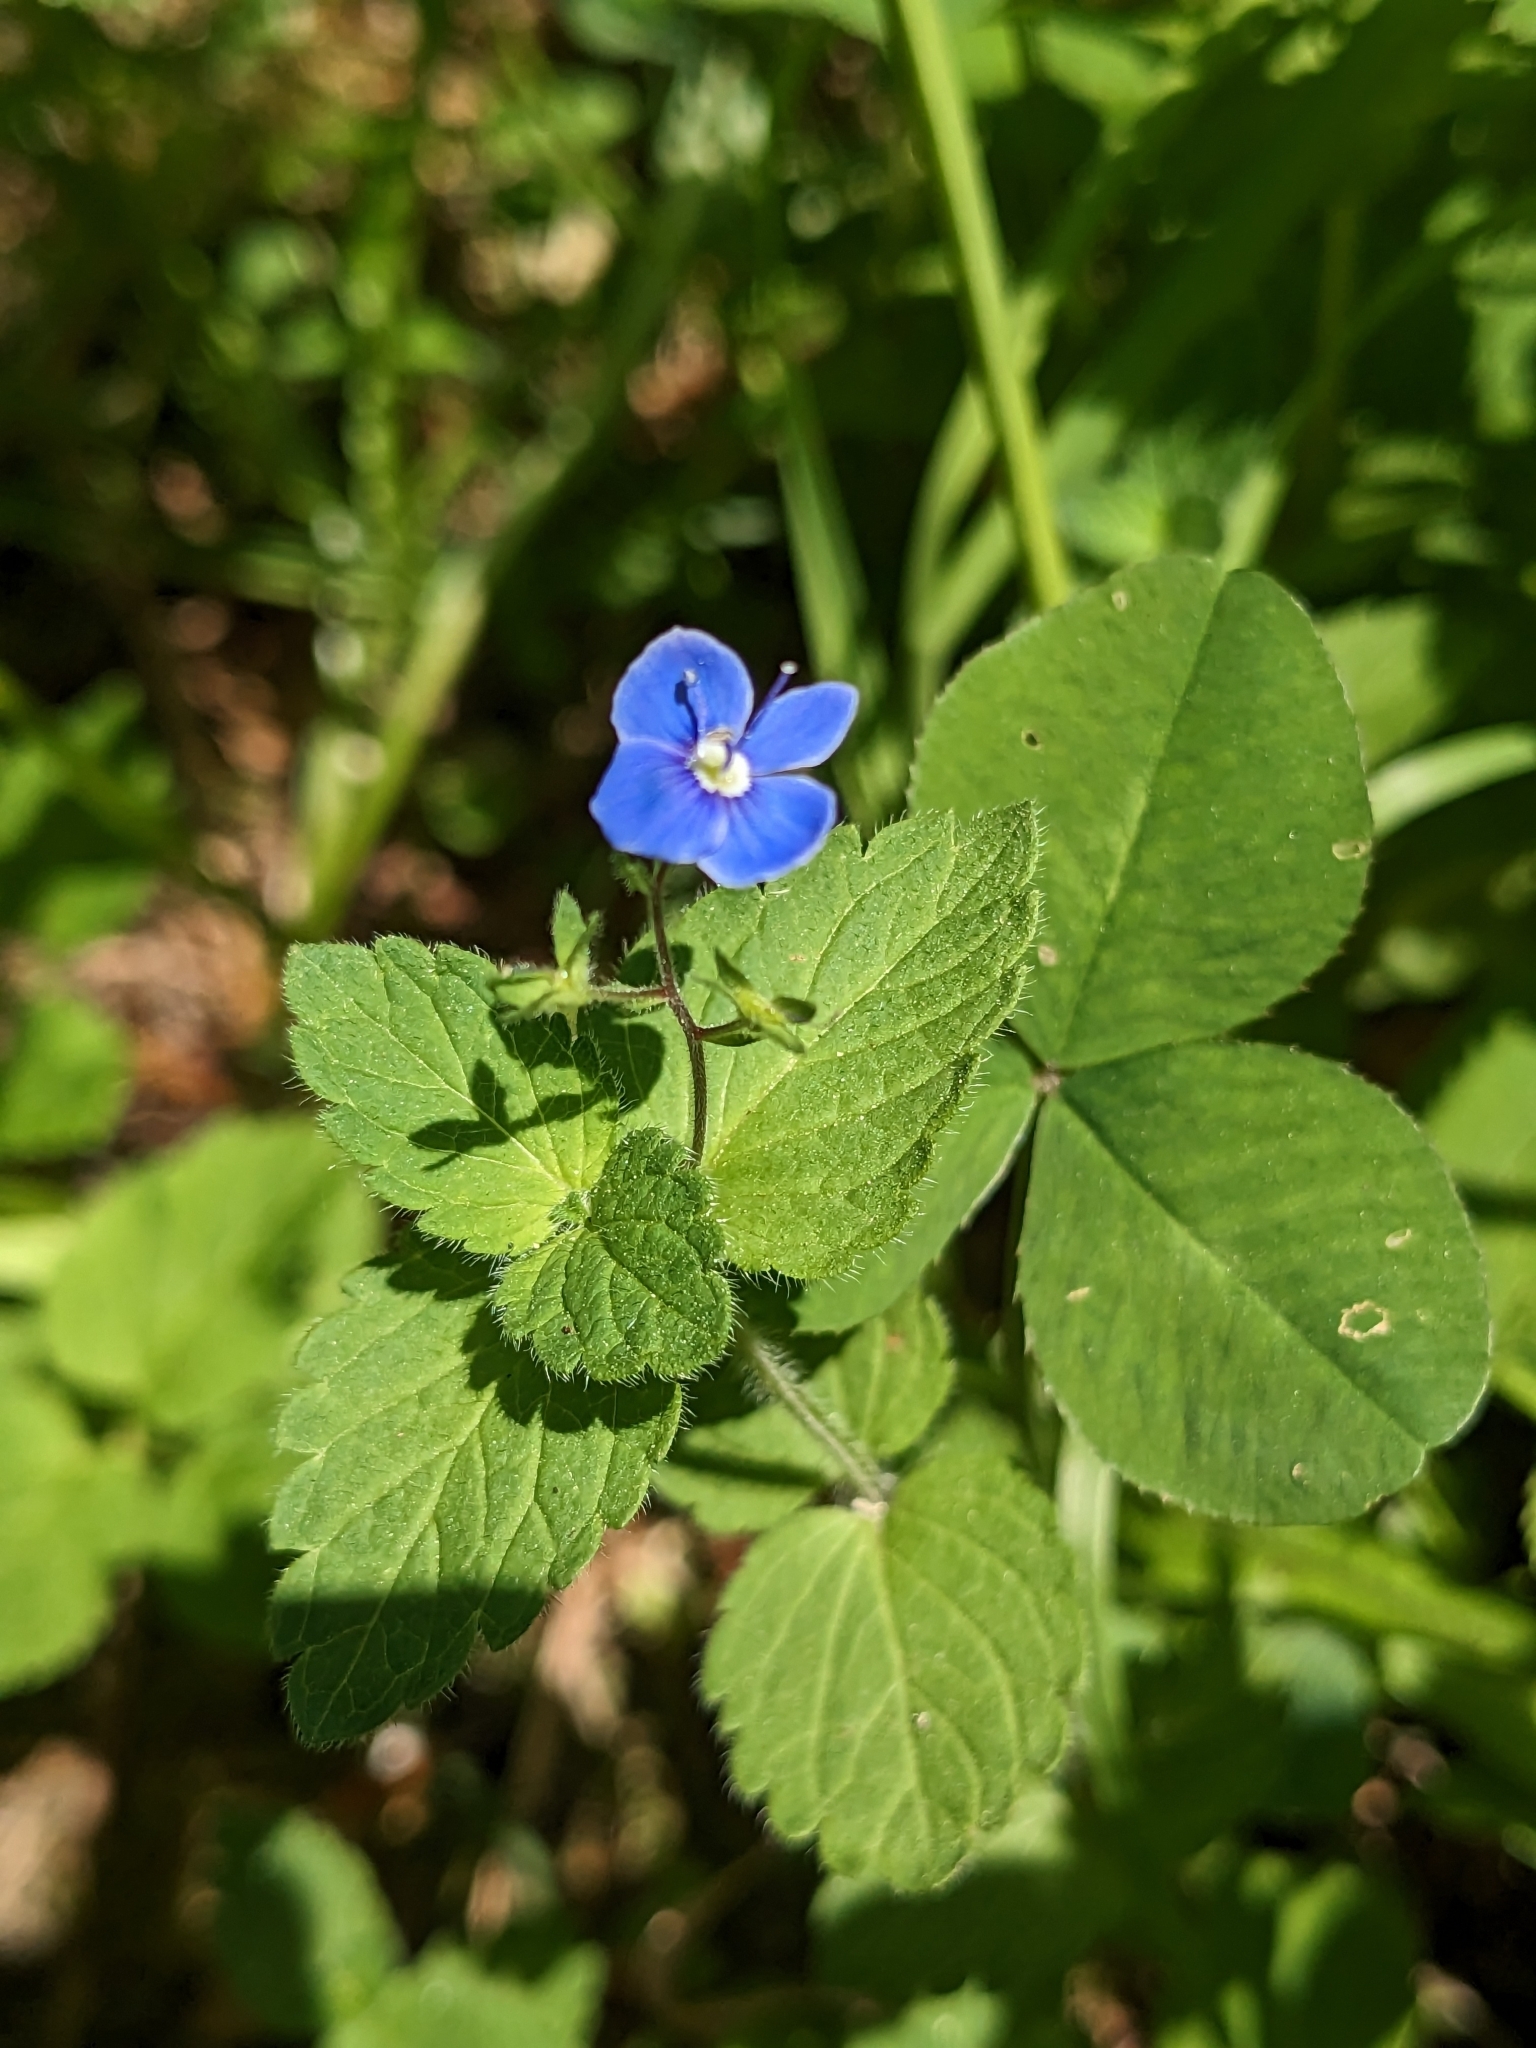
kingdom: Plantae
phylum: Tracheophyta
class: Magnoliopsida
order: Lamiales
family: Plantaginaceae
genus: Veronica
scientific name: Veronica chamaedrys
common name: Germander speedwell
